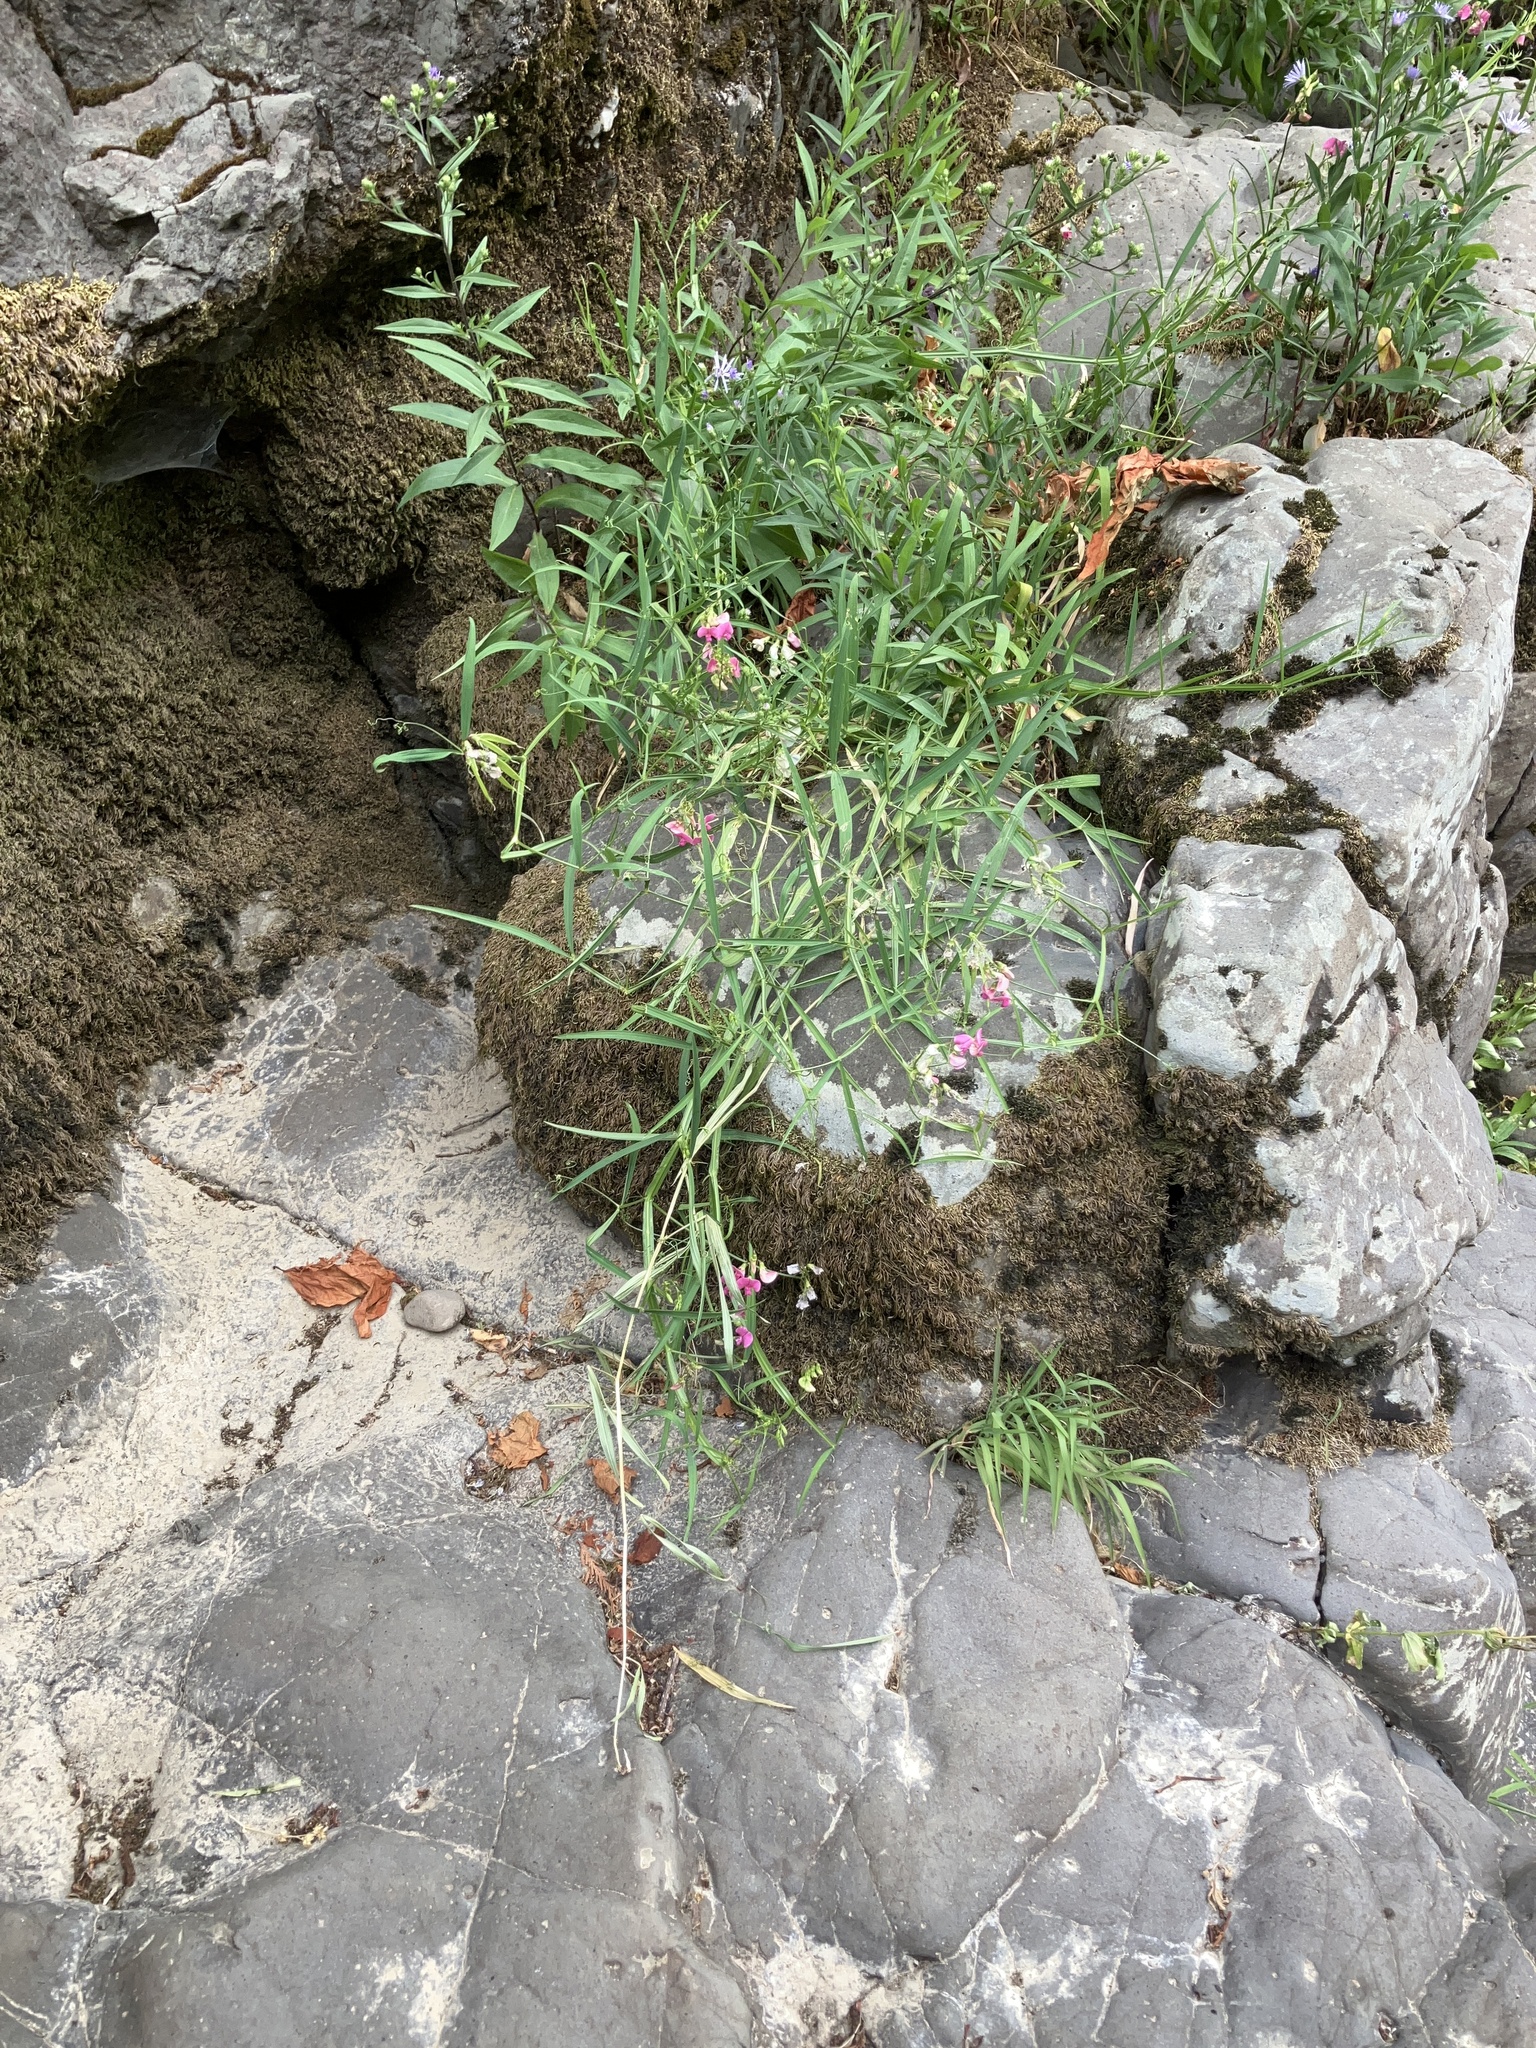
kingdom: Plantae
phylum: Tracheophyta
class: Magnoliopsida
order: Fabales
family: Fabaceae
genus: Lathyrus
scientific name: Lathyrus sylvestris
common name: Flat pea
